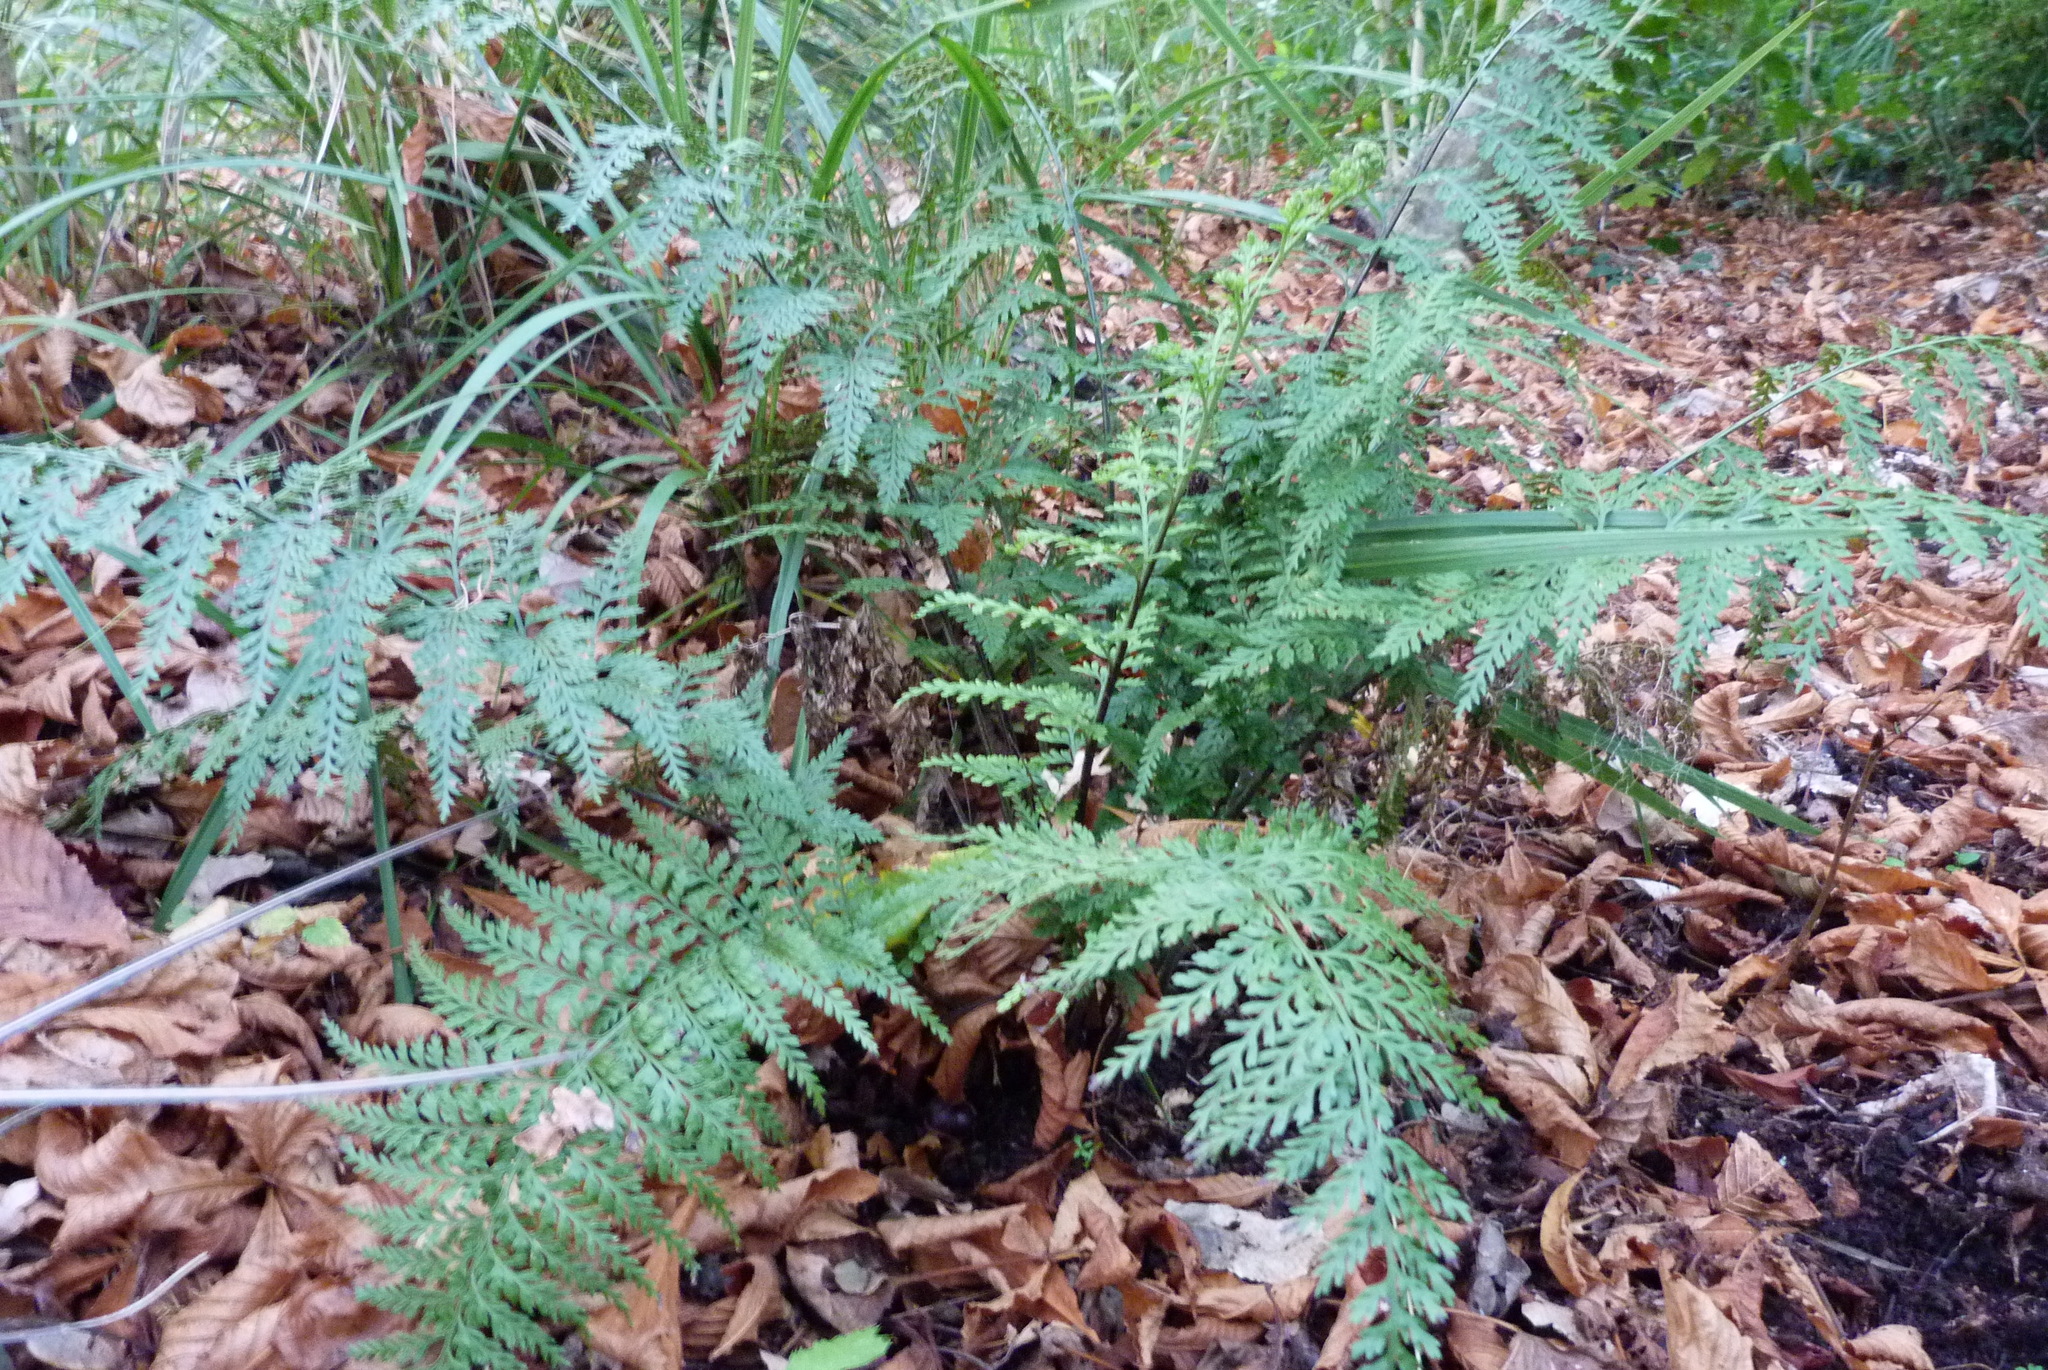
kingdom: Plantae
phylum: Tracheophyta
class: Polypodiopsida
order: Polypodiales
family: Aspleniaceae
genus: Asplenium
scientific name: Asplenium
